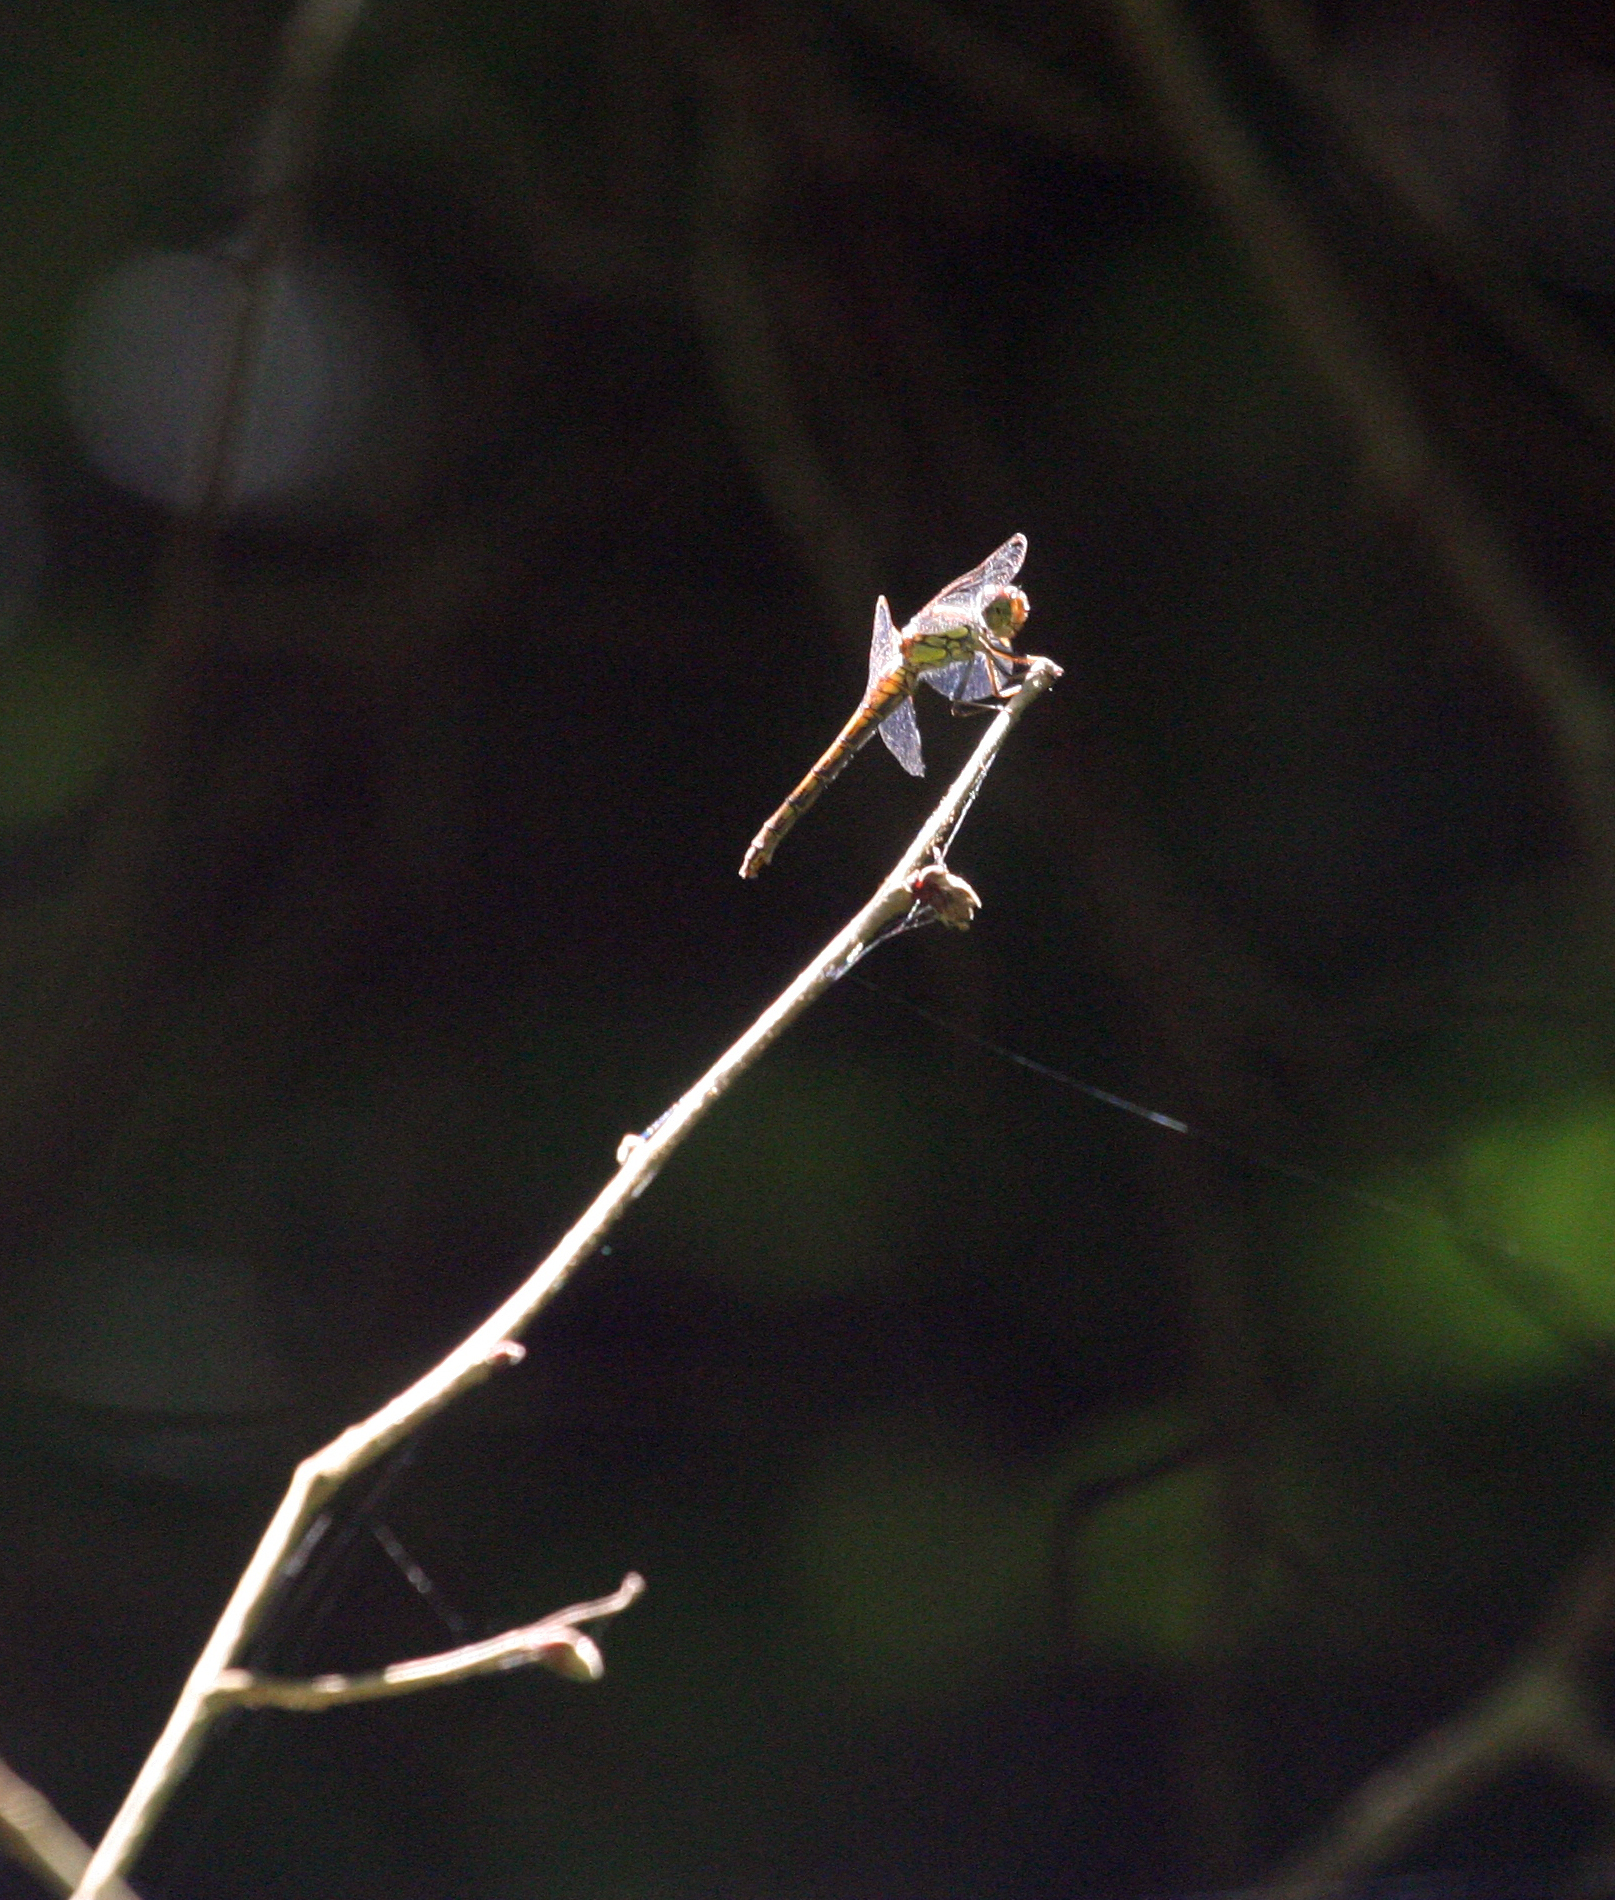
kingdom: Animalia
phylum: Arthropoda
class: Insecta
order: Odonata
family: Libellulidae
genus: Sympetrum
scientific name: Sympetrum striolatum
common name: Common darter
